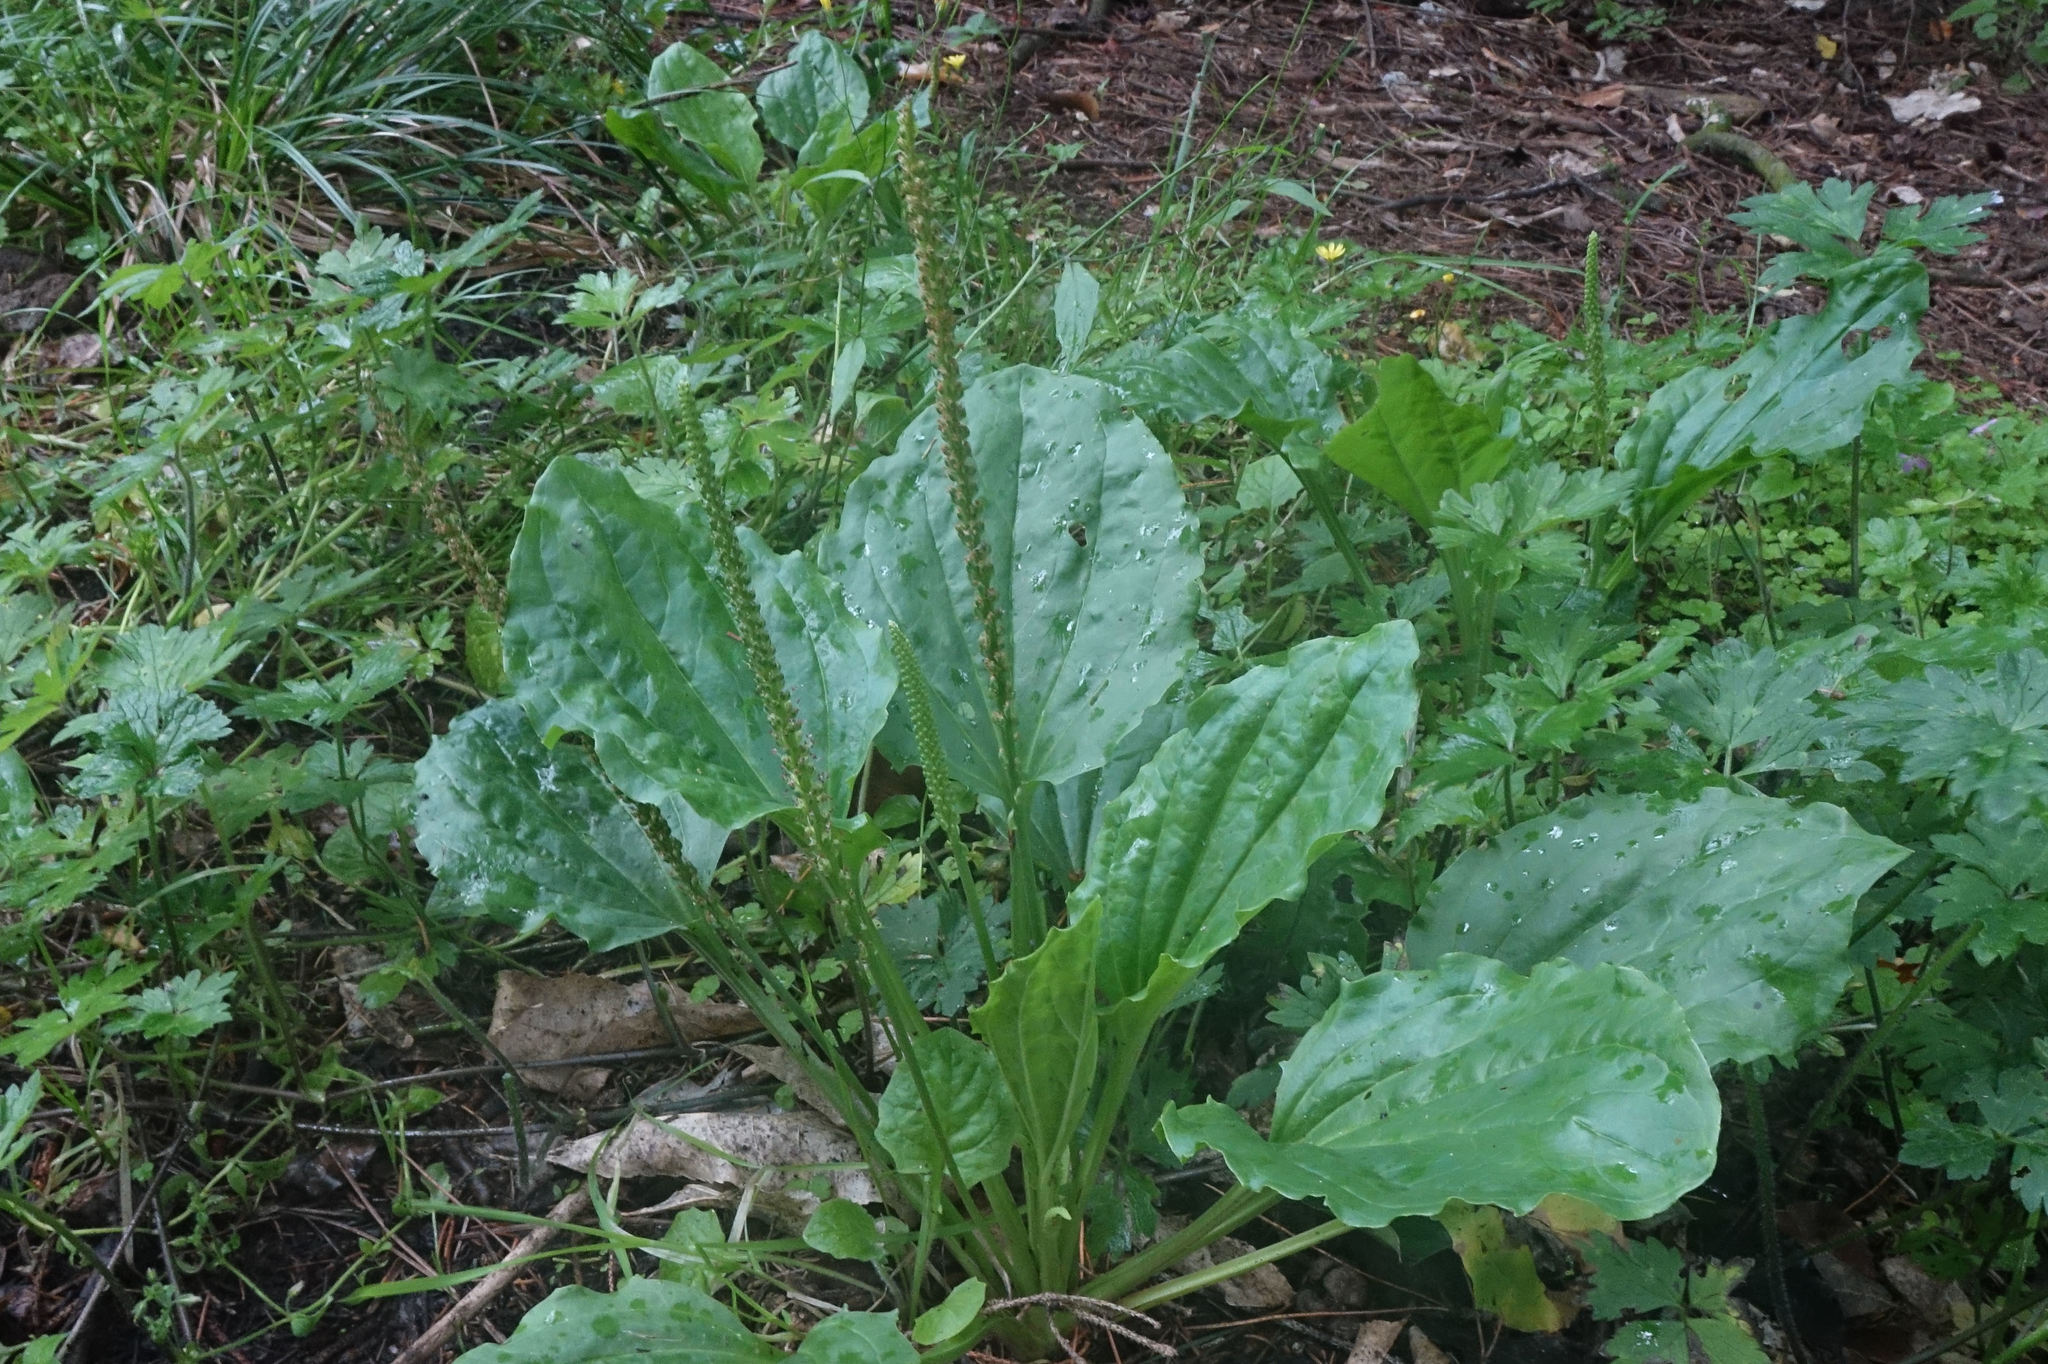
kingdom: Plantae
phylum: Tracheophyta
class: Magnoliopsida
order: Lamiales
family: Plantaginaceae
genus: Plantago
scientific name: Plantago major
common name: Common plantain
